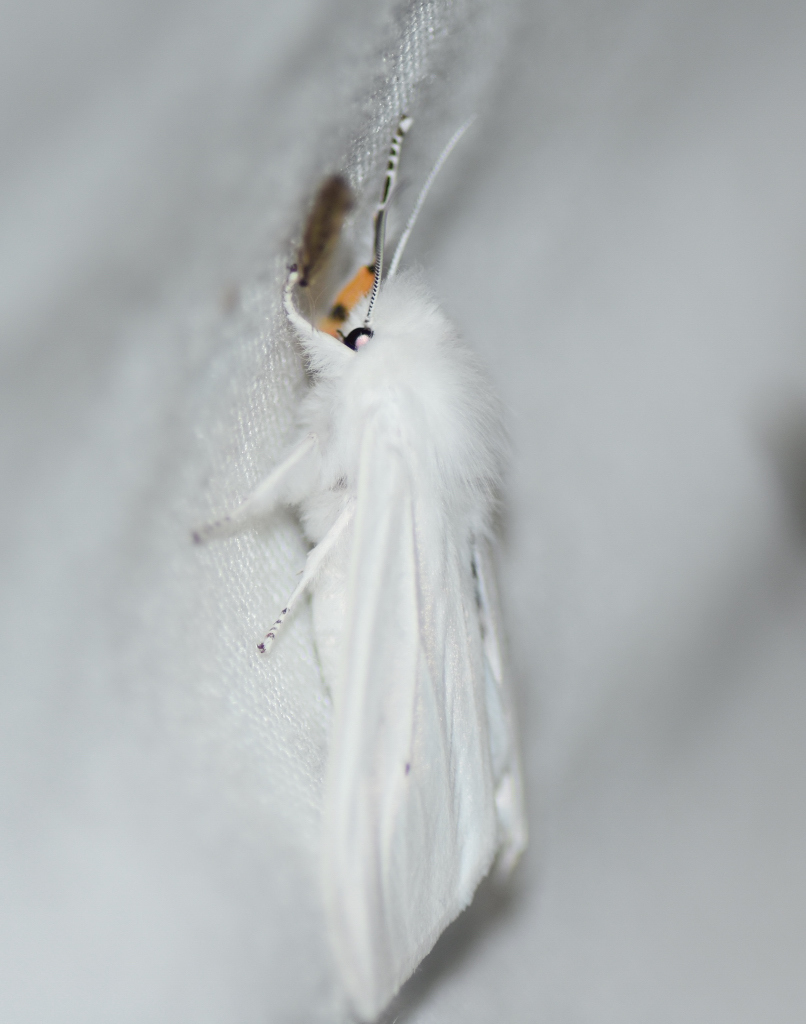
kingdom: Animalia
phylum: Arthropoda
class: Insecta
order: Lepidoptera
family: Erebidae
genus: Spilosoma
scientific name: Spilosoma virginica
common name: Virginia tiger moth
